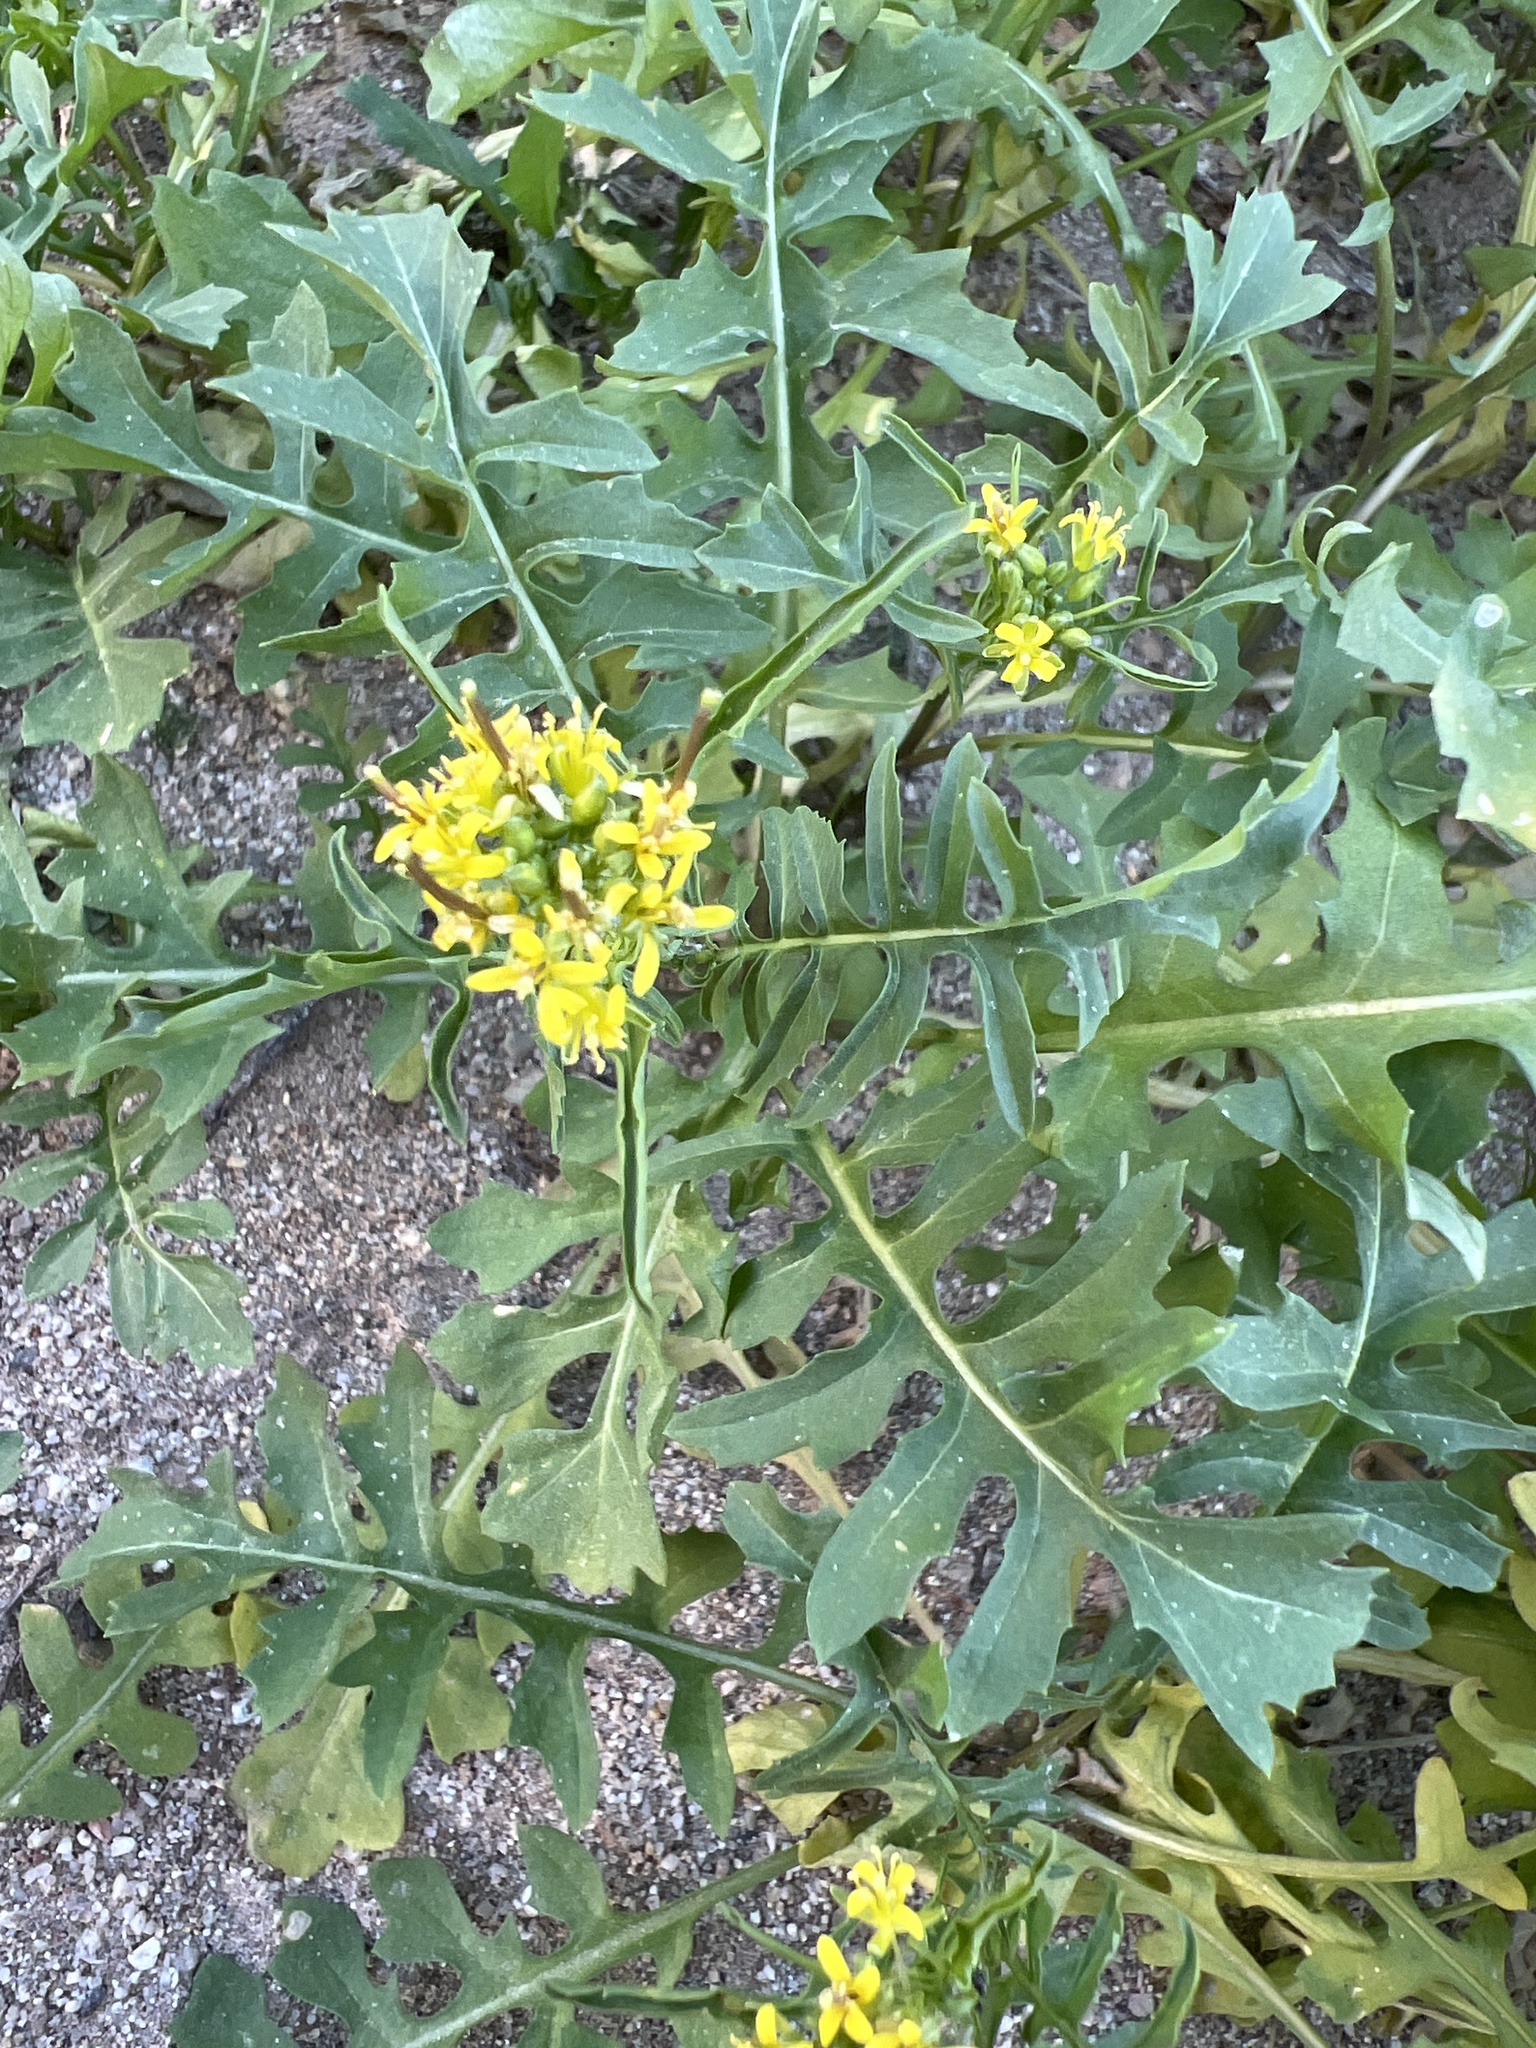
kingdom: Plantae
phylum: Tracheophyta
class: Magnoliopsida
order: Brassicales
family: Brassicaceae
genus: Sisymbrium
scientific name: Sisymbrium irio
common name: London rocket
